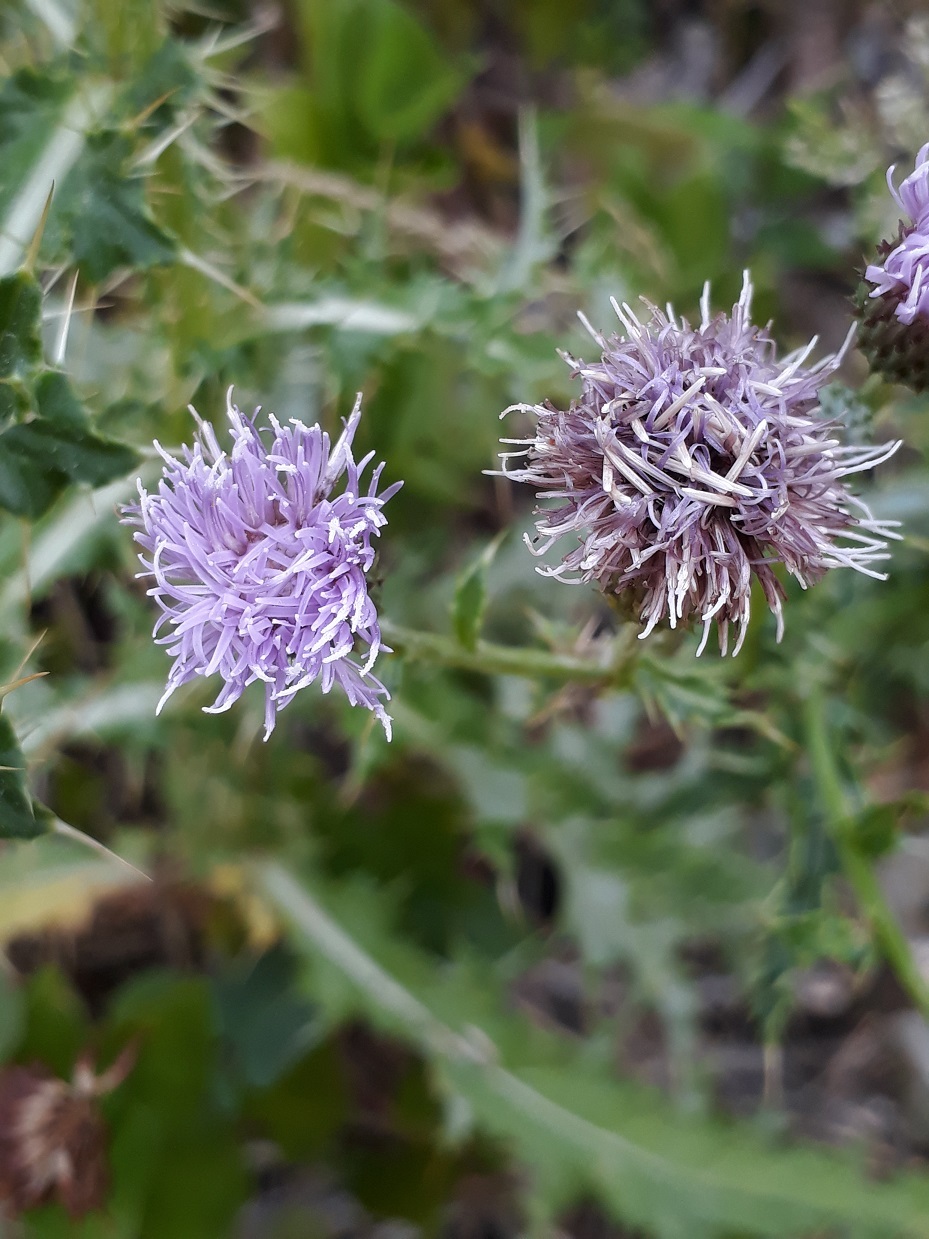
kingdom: Plantae
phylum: Tracheophyta
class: Magnoliopsida
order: Asterales
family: Asteraceae
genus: Cirsium
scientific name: Cirsium arvense
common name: Creeping thistle
